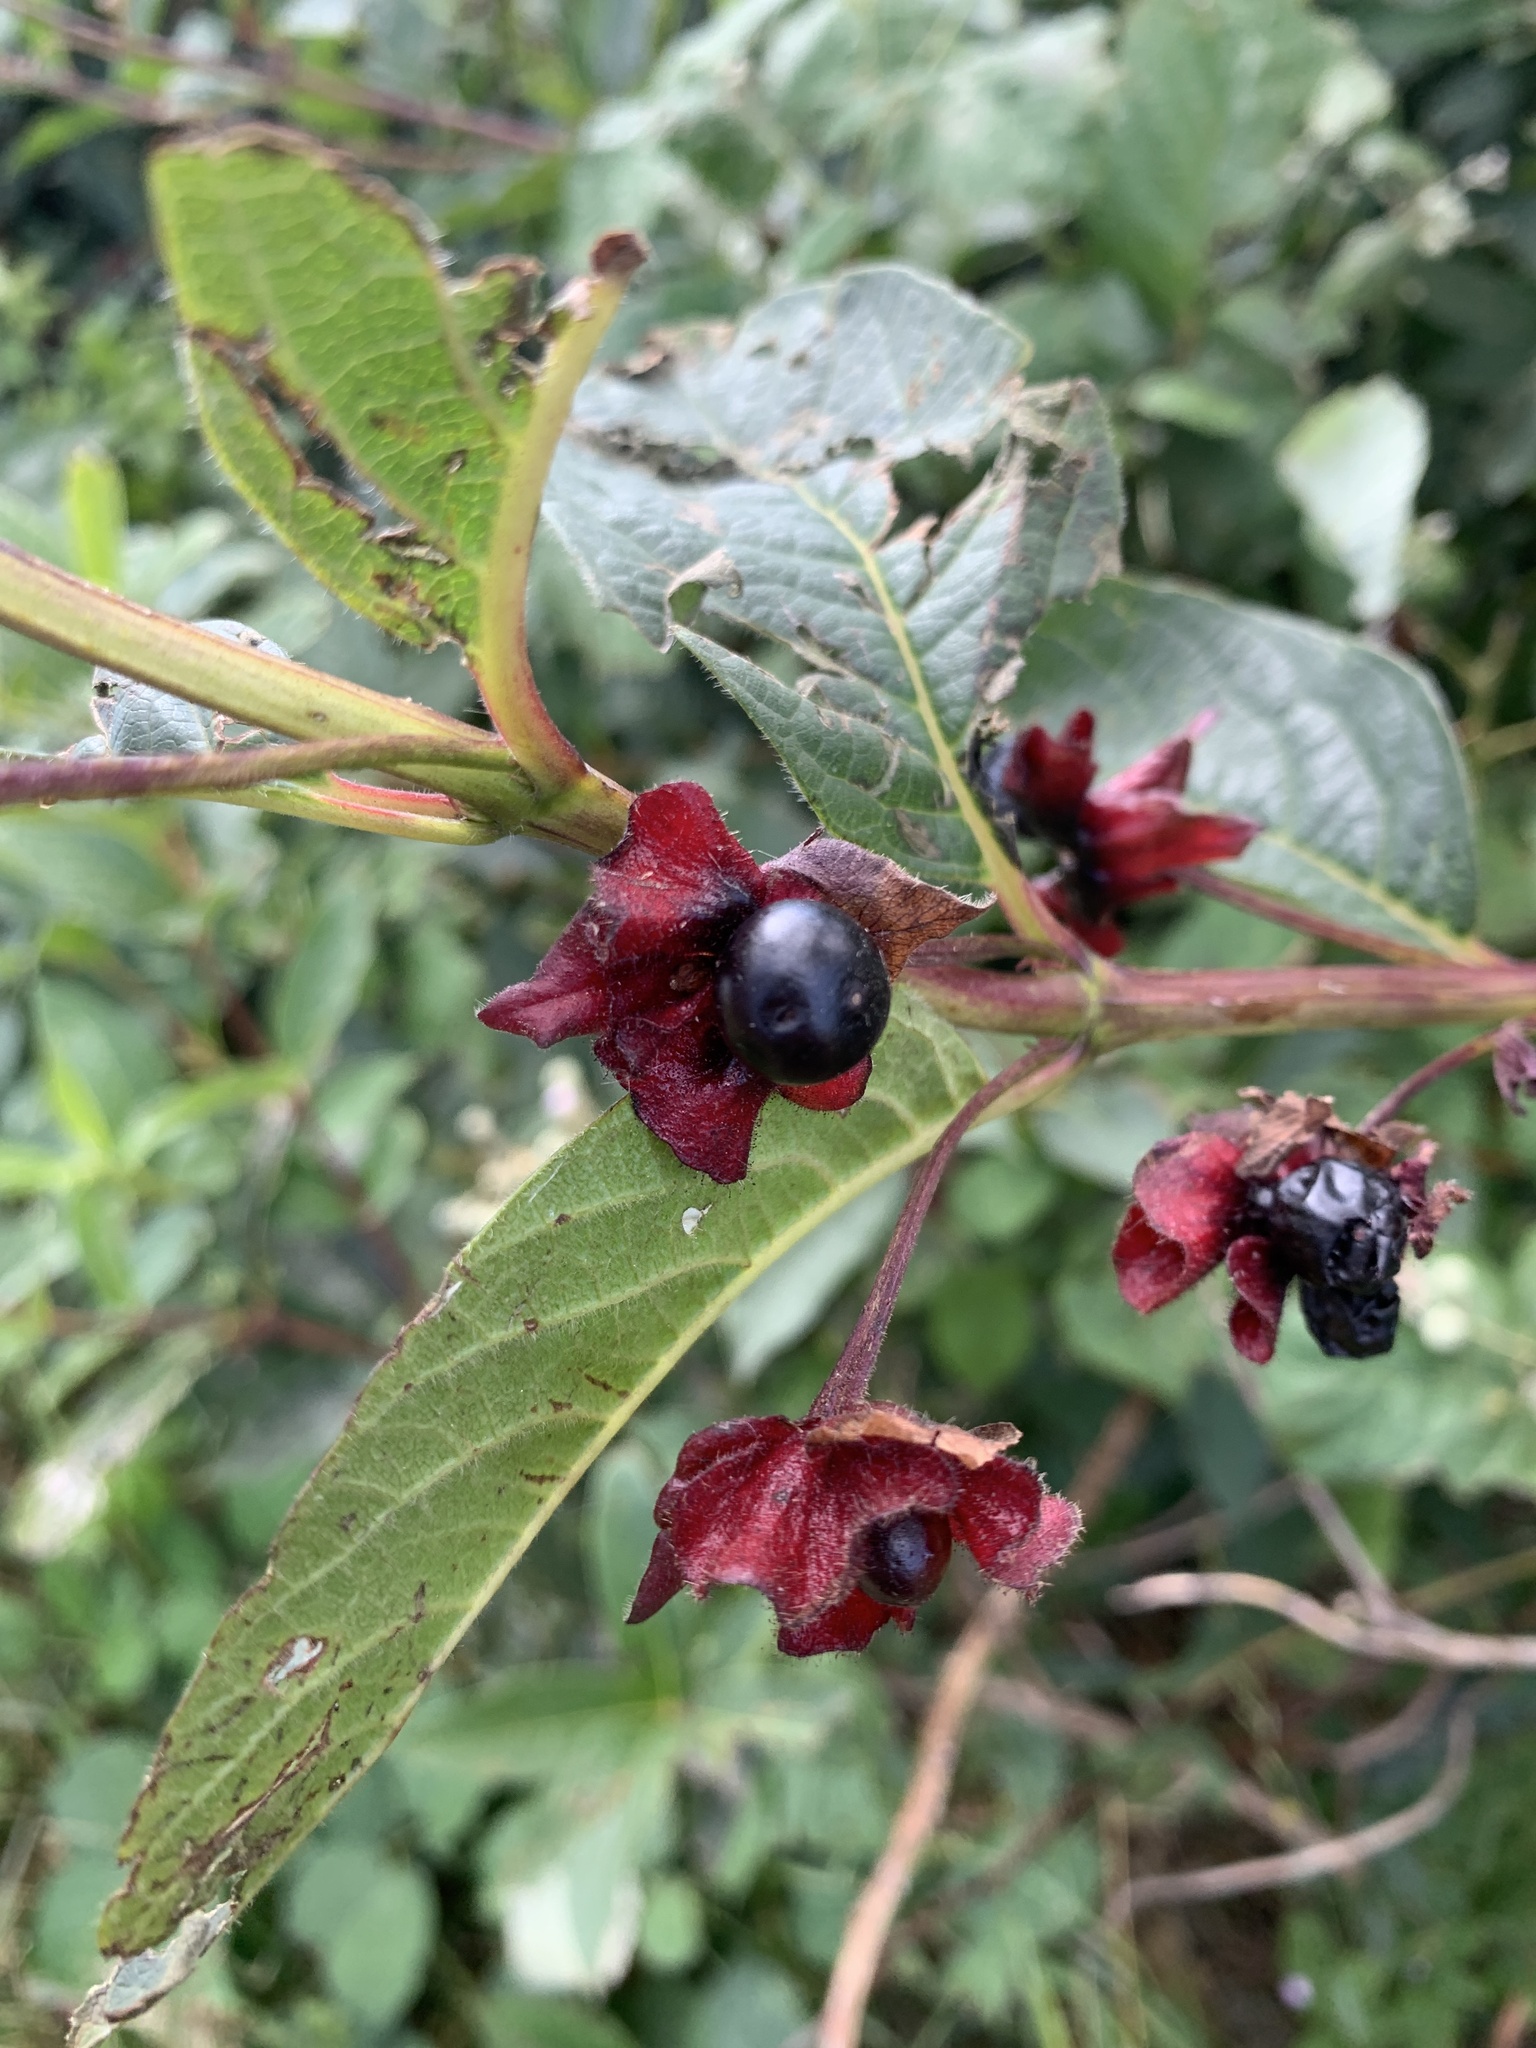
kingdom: Plantae
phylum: Tracheophyta
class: Magnoliopsida
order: Dipsacales
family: Caprifoliaceae
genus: Lonicera
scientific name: Lonicera involucrata
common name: Californian honeysuckle
